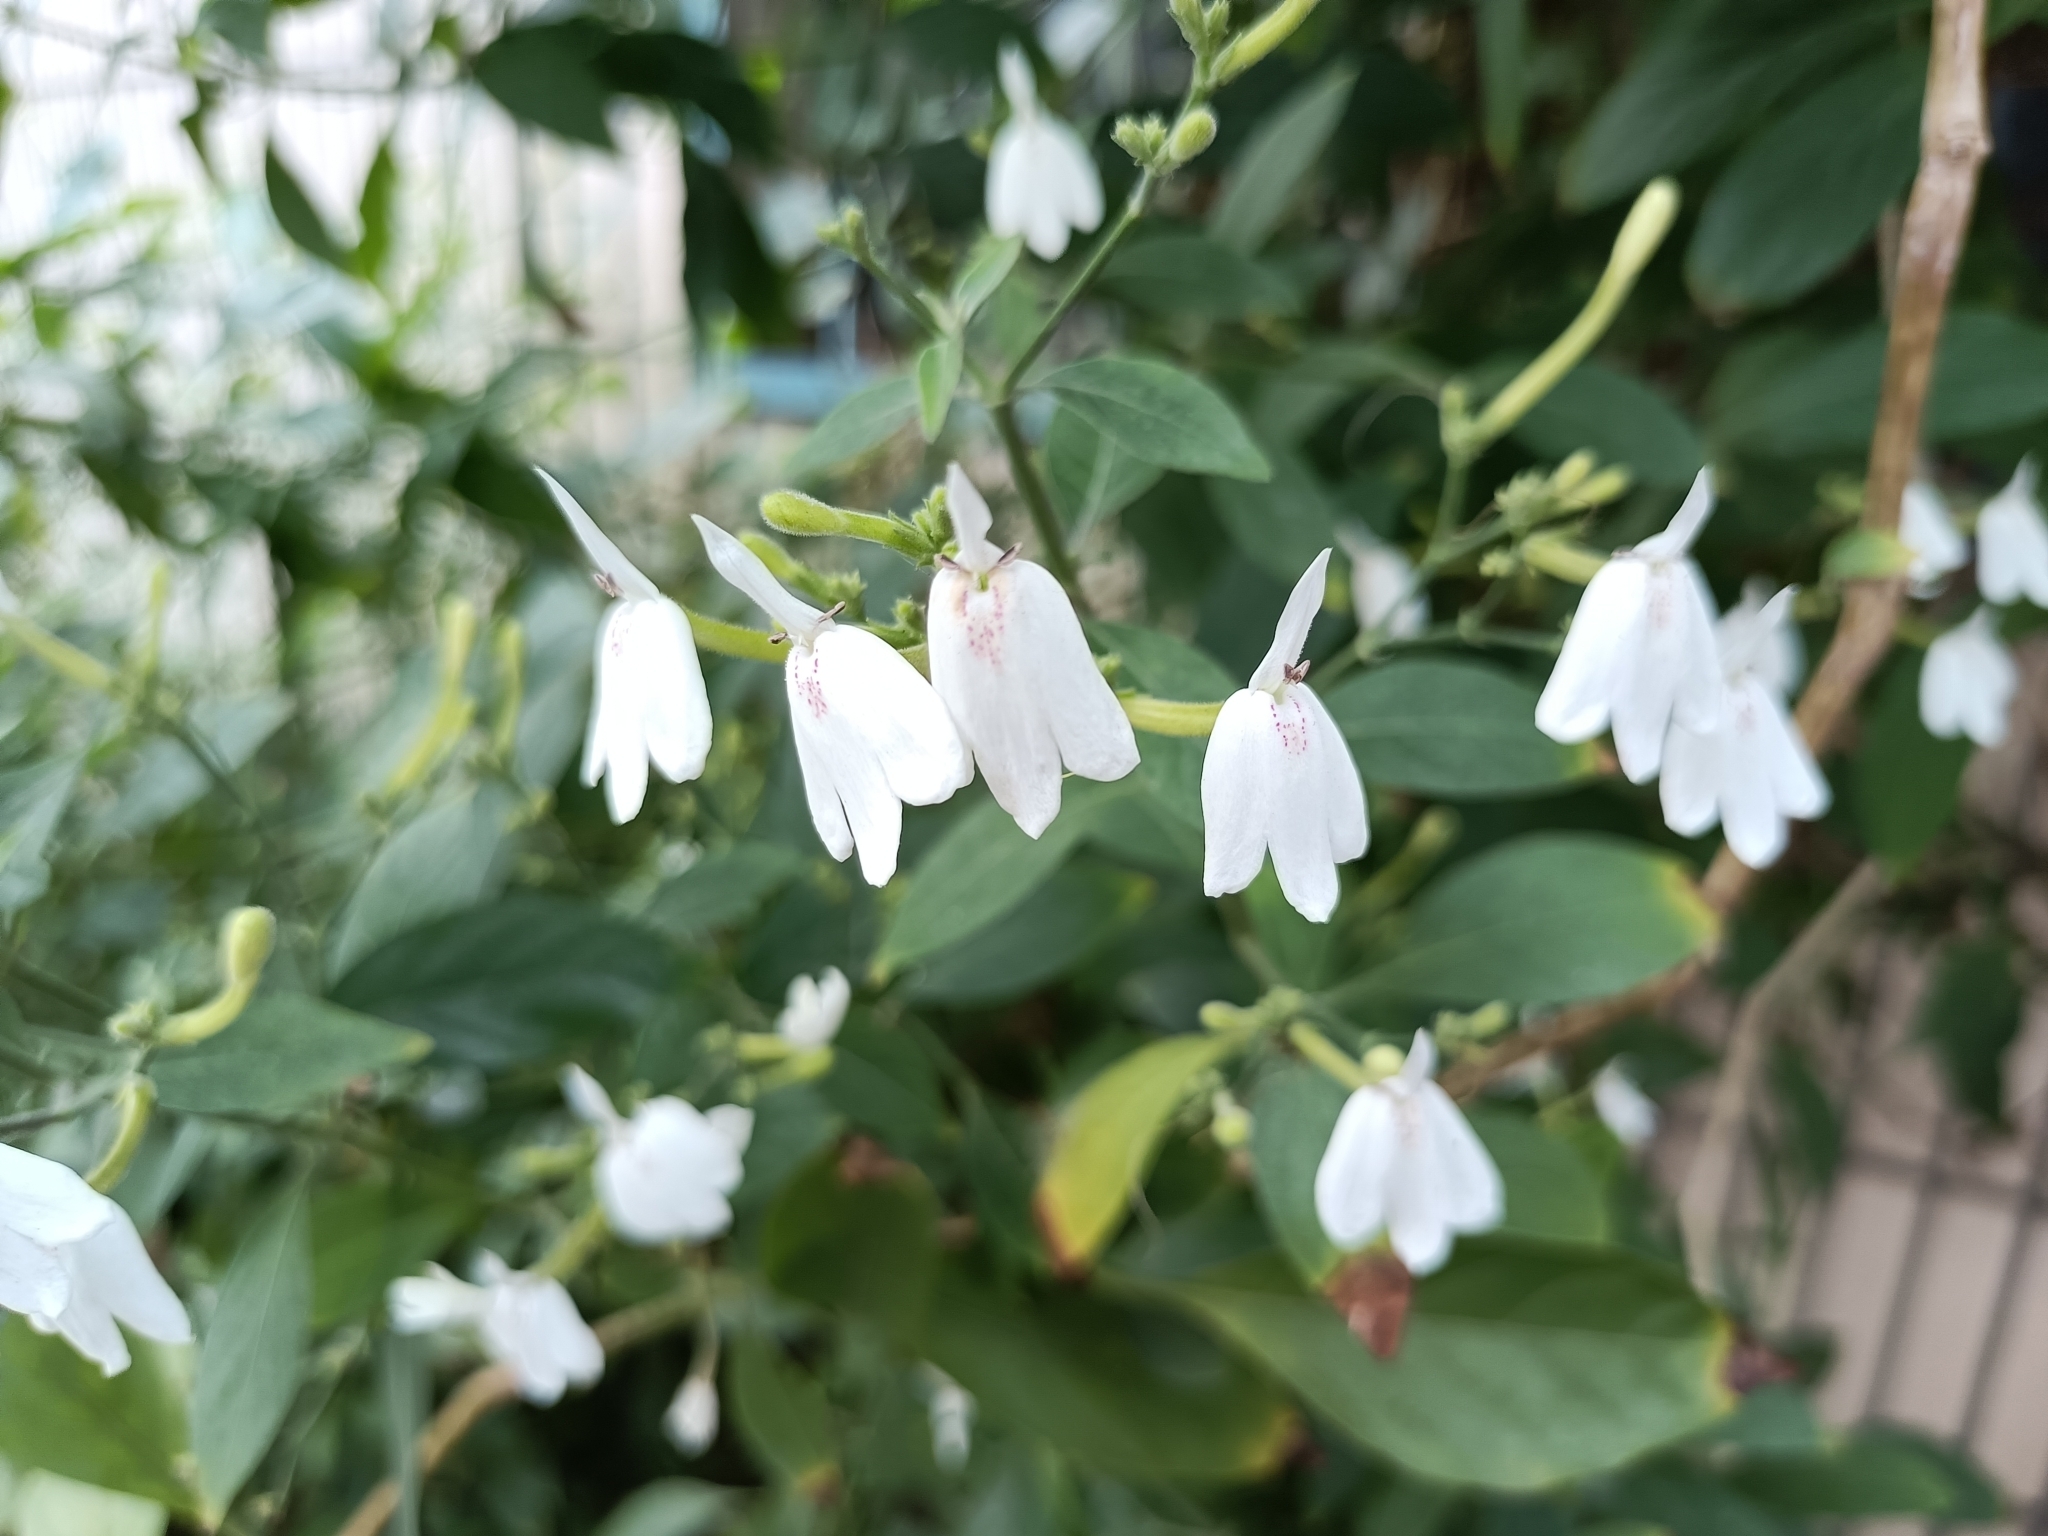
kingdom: Plantae
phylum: Tracheophyta
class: Magnoliopsida
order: Lamiales
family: Acanthaceae
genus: Rhinacanthus
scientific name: Rhinacanthus nasutus
